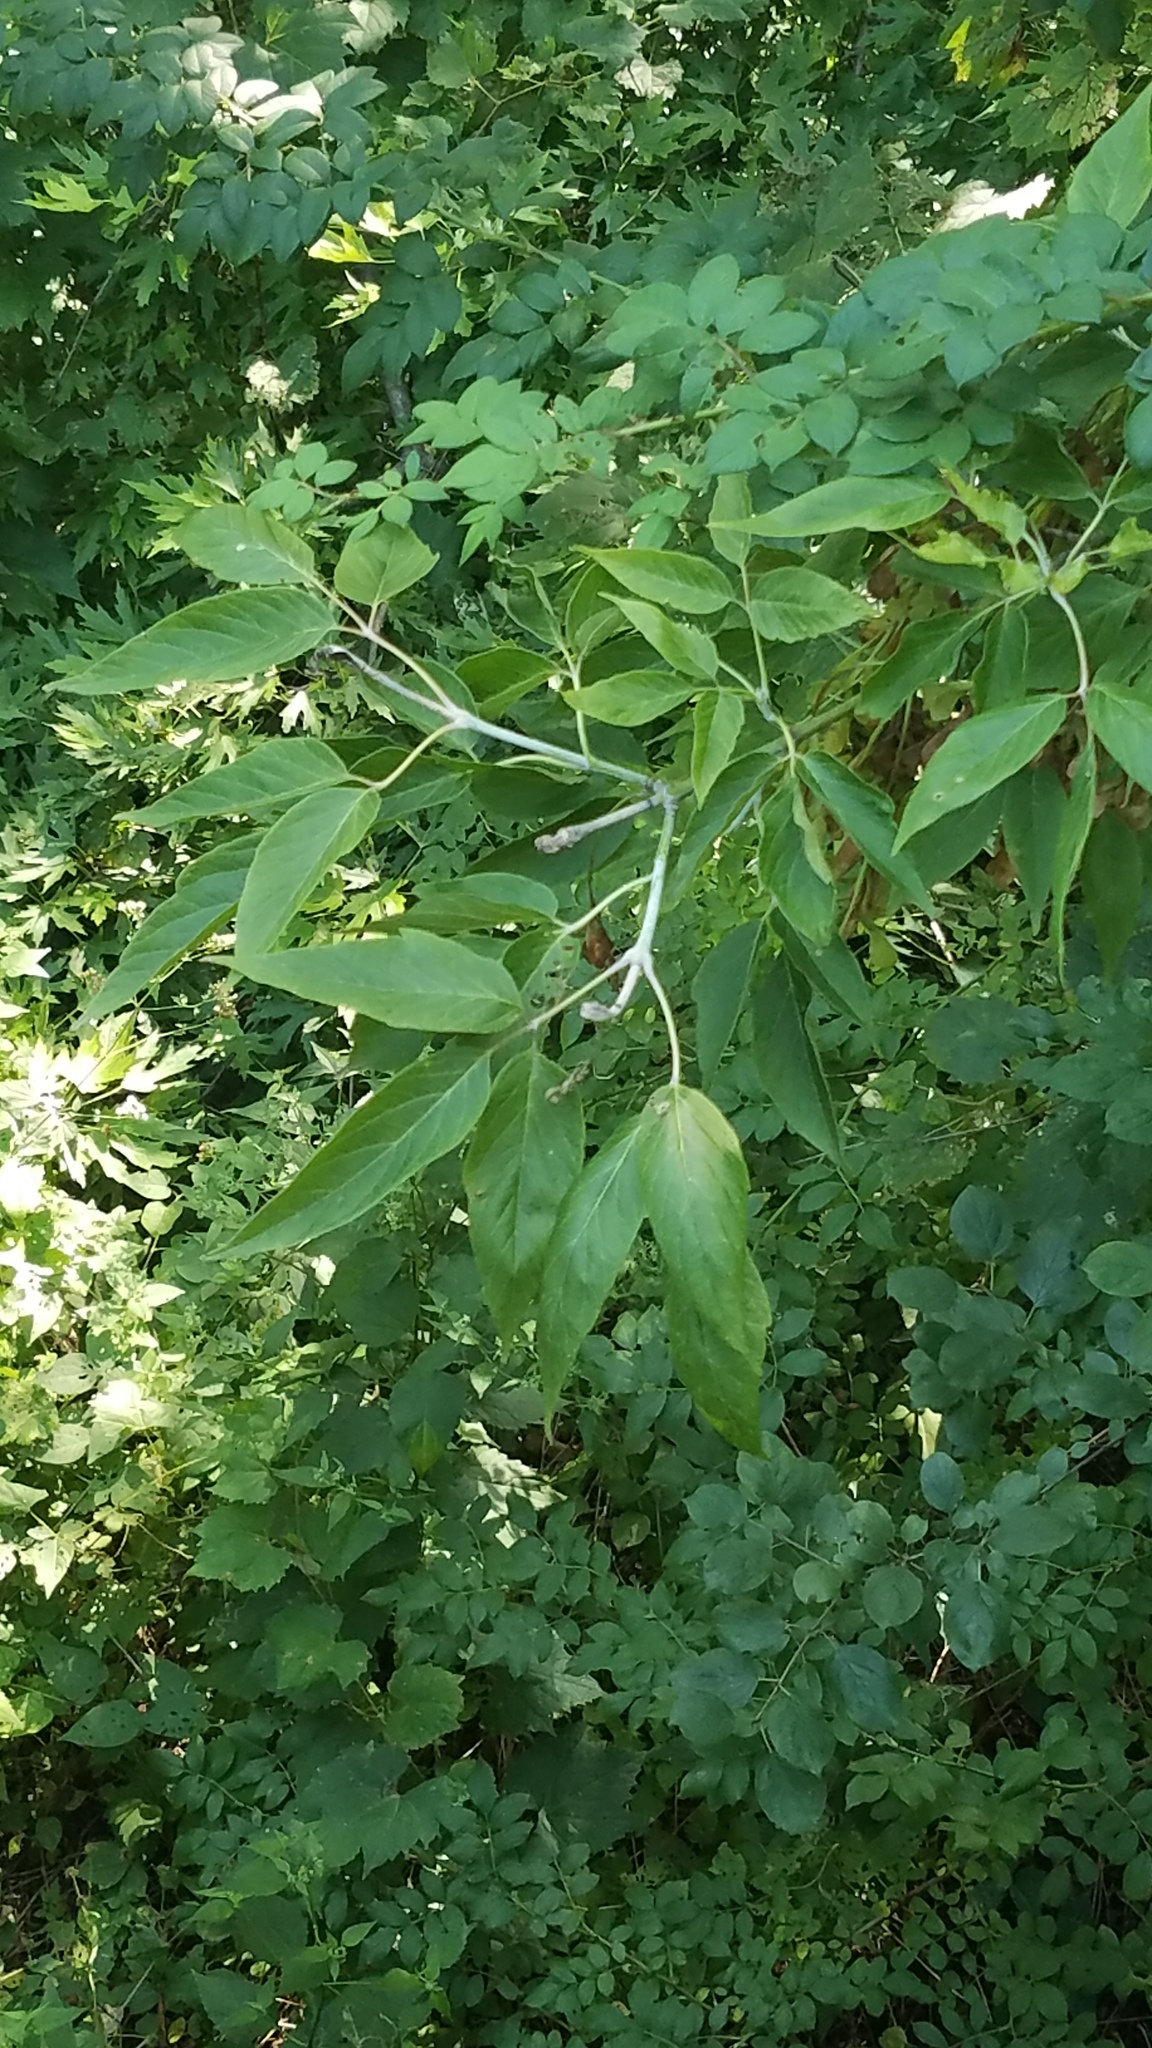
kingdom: Plantae
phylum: Tracheophyta
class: Magnoliopsida
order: Sapindales
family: Sapindaceae
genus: Acer
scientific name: Acer negundo
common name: Ashleaf maple
